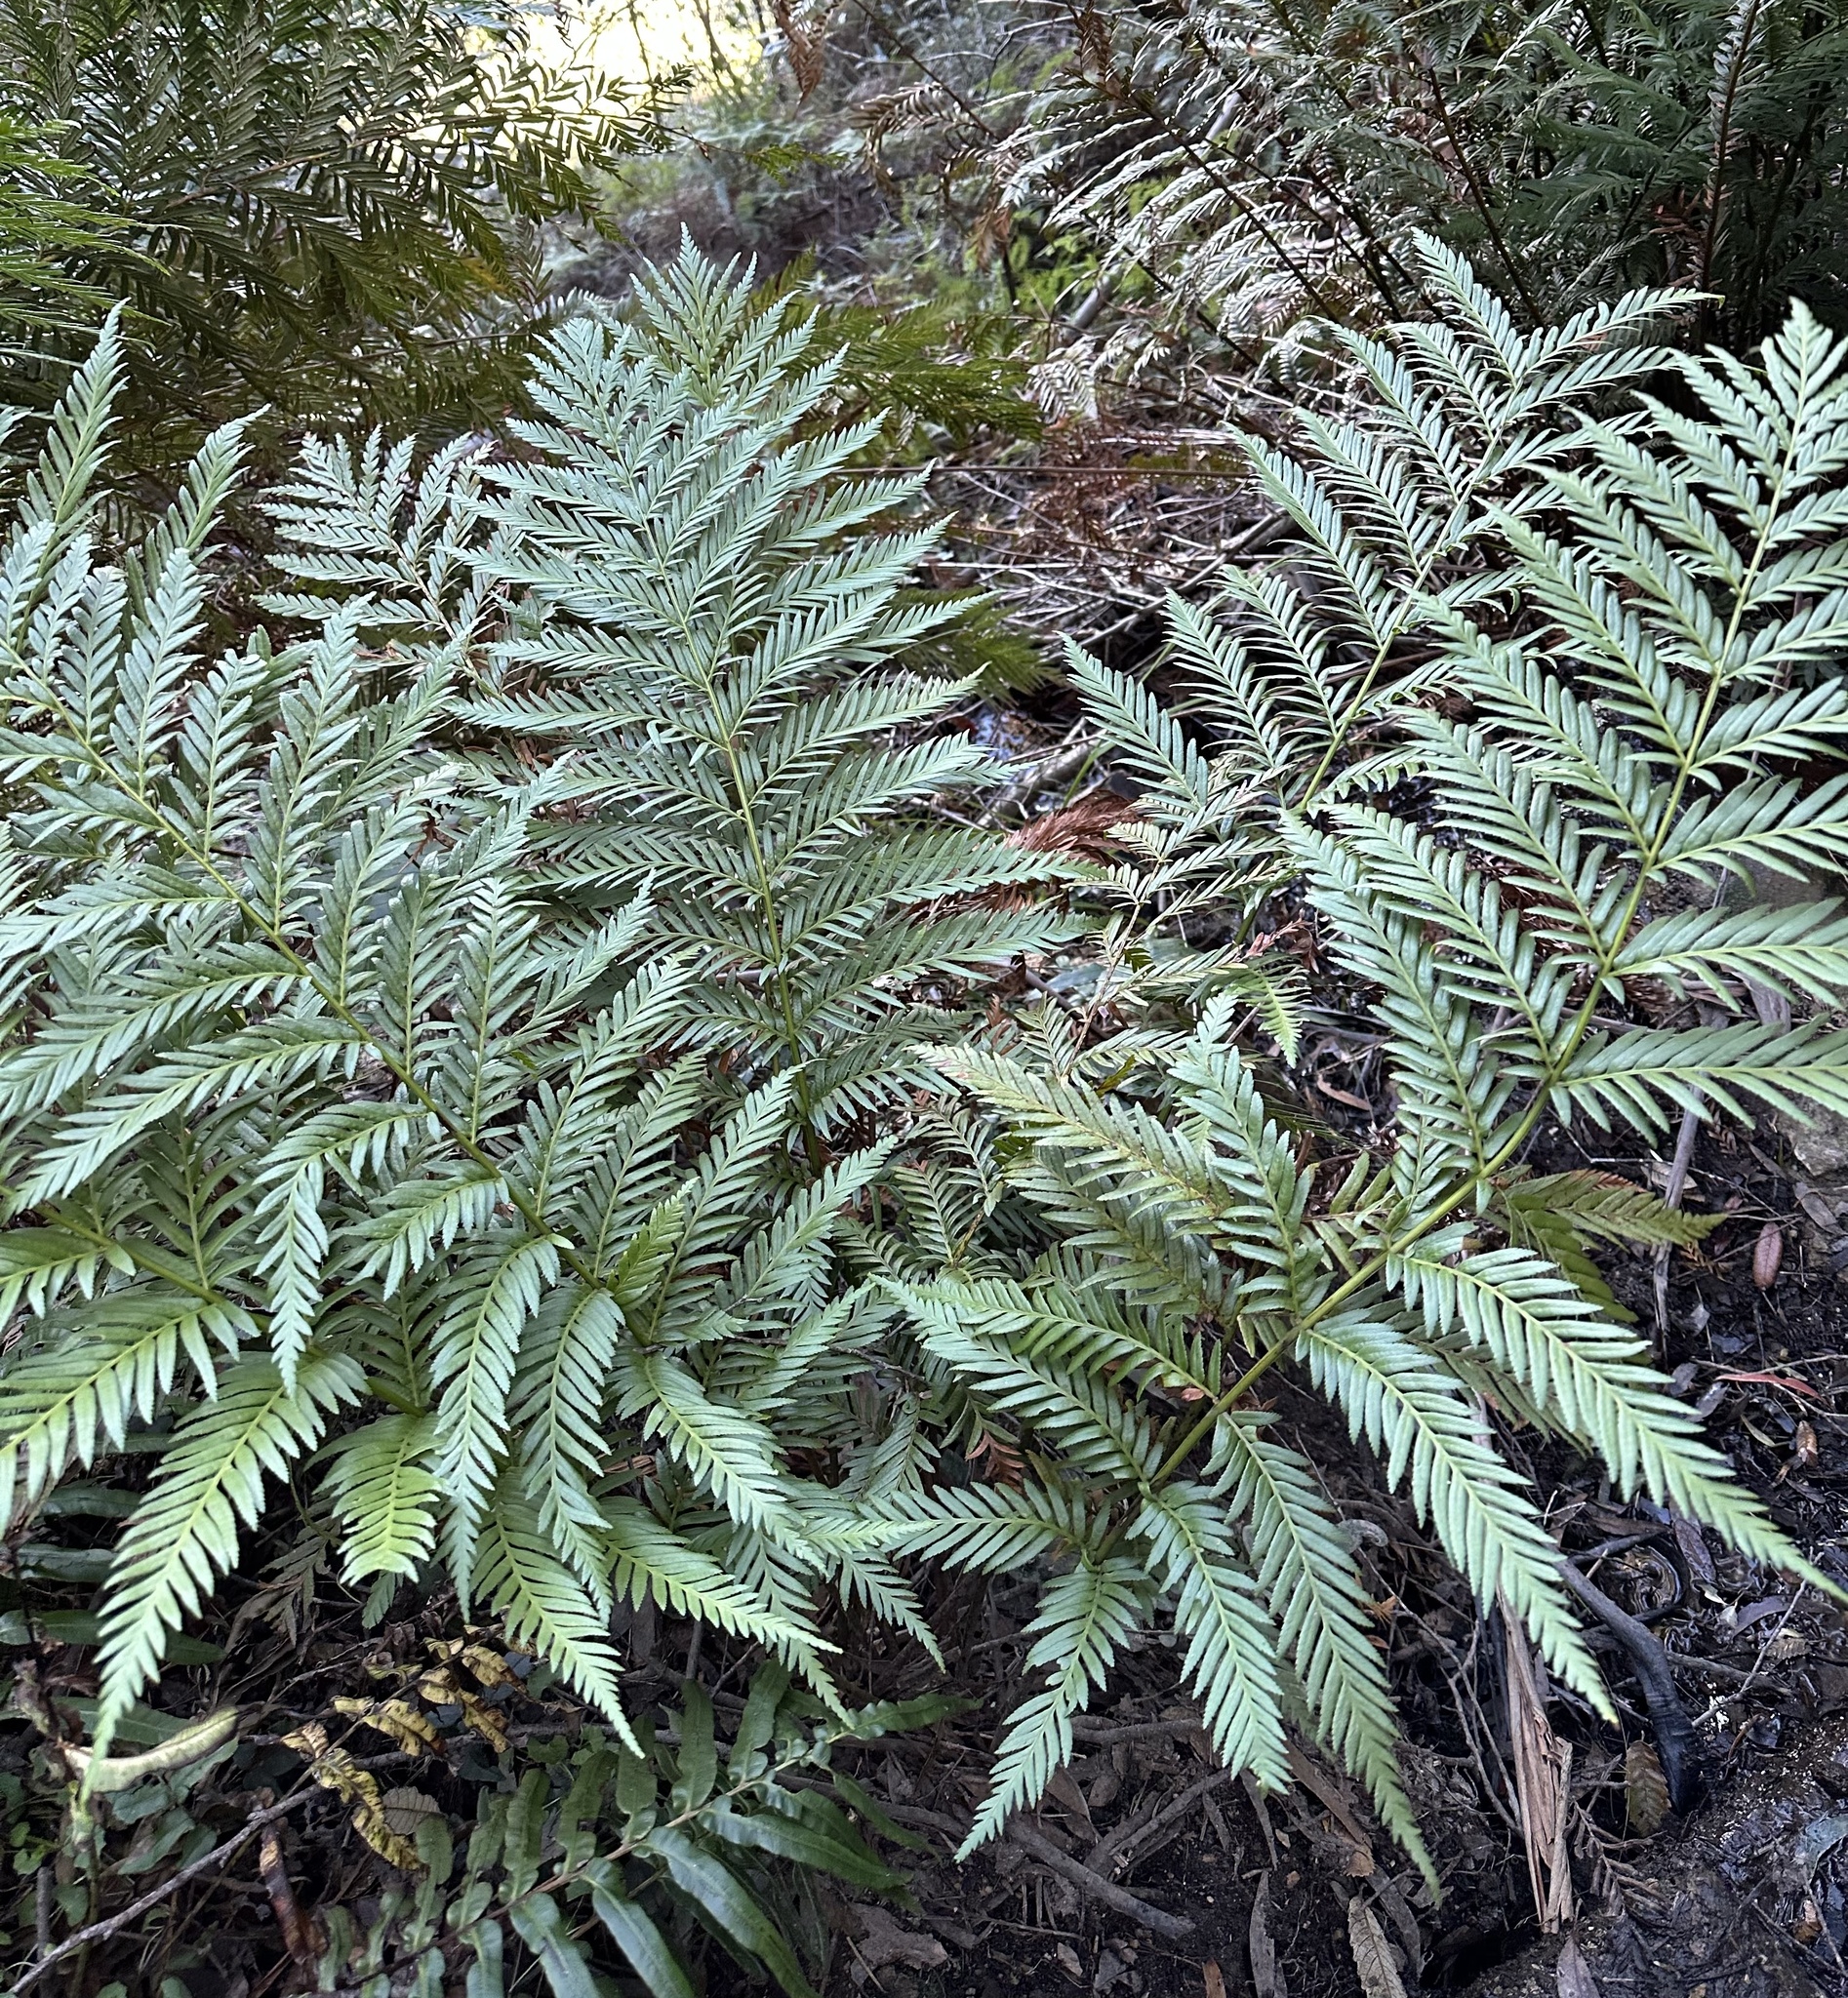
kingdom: Plantae
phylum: Tracheophyta
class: Polypodiopsida
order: Osmundales
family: Osmundaceae
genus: Todea
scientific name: Todea barbara
